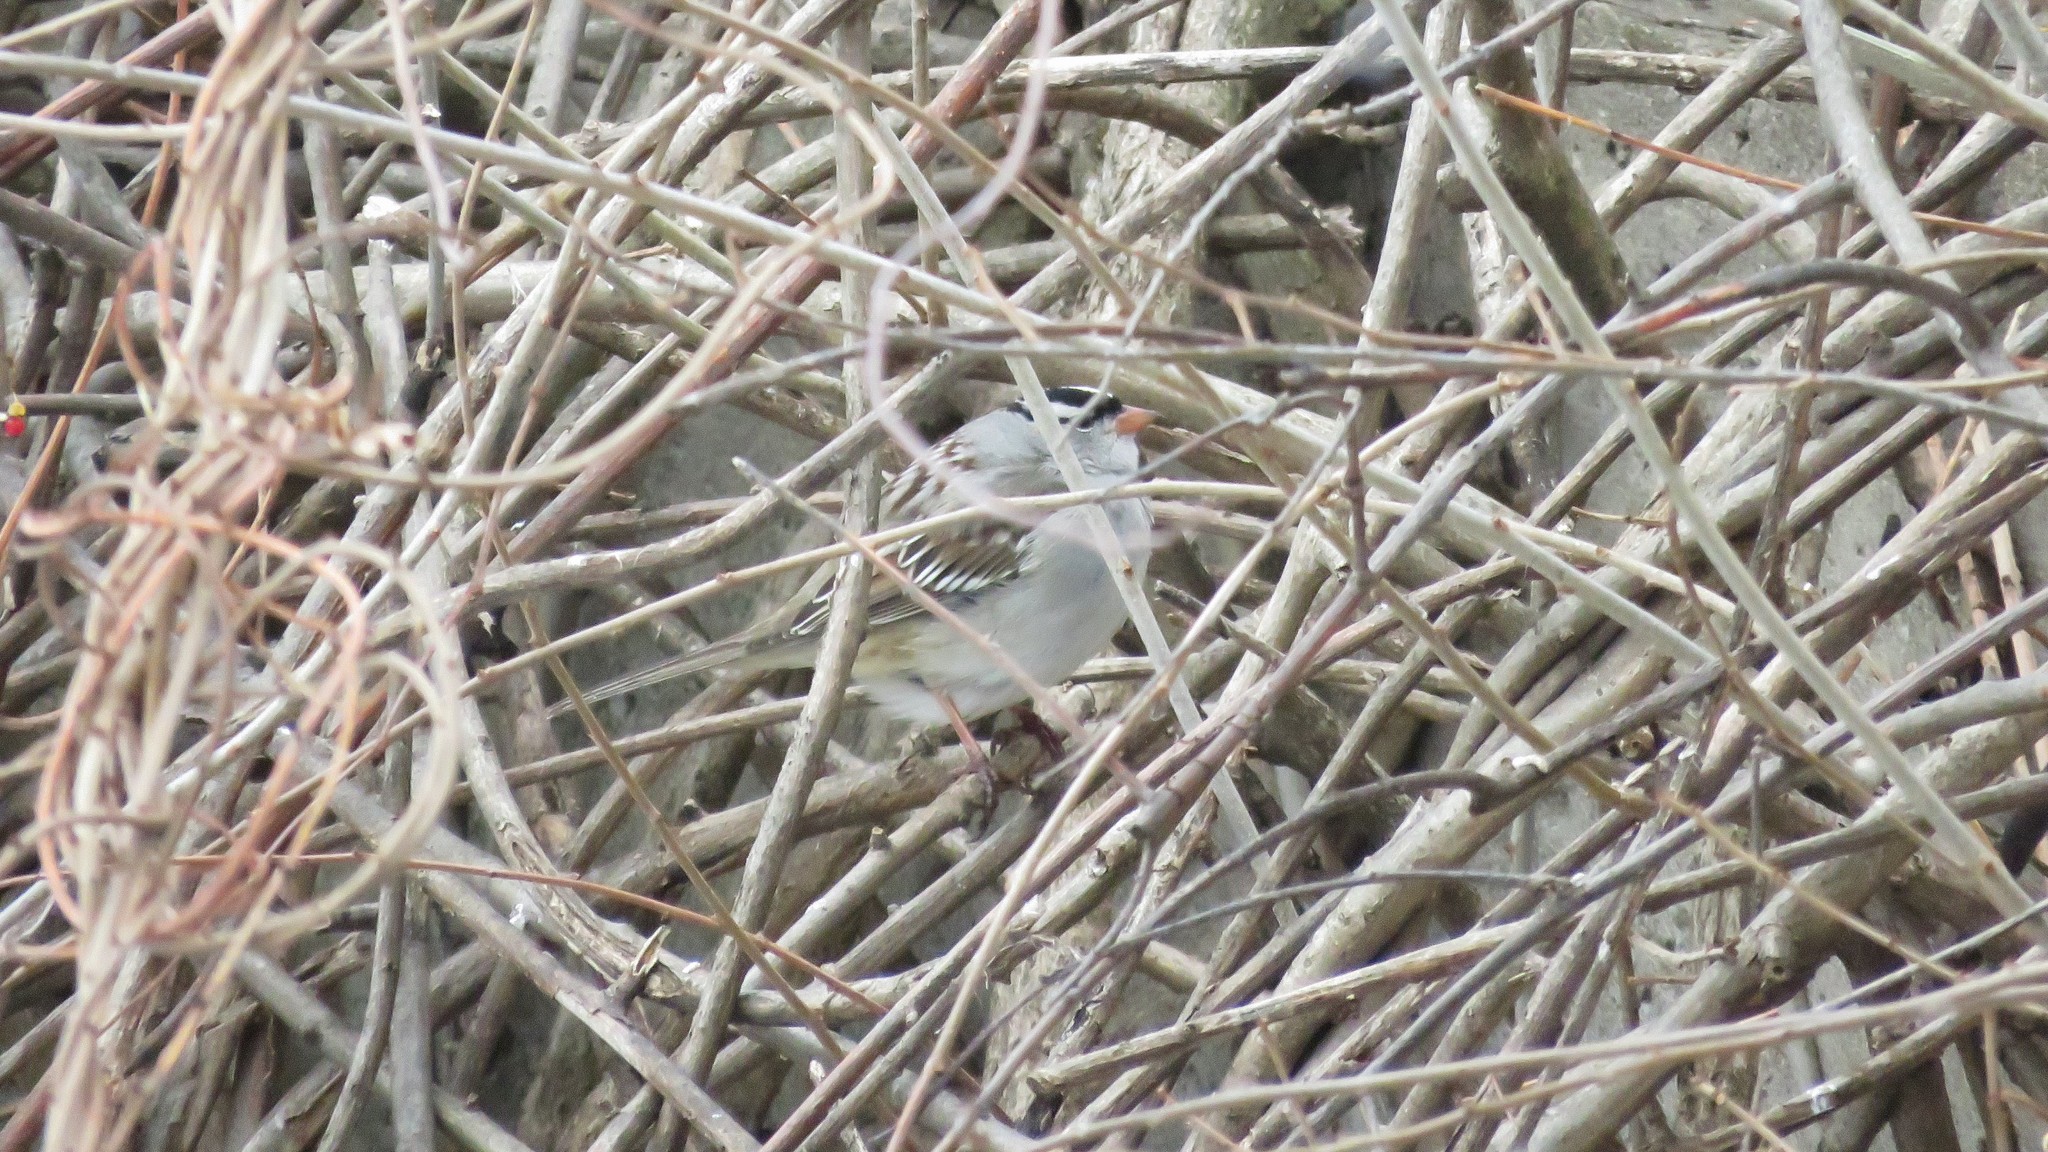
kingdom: Animalia
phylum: Chordata
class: Aves
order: Passeriformes
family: Passerellidae
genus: Zonotrichia
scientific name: Zonotrichia leucophrys
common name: White-crowned sparrow
